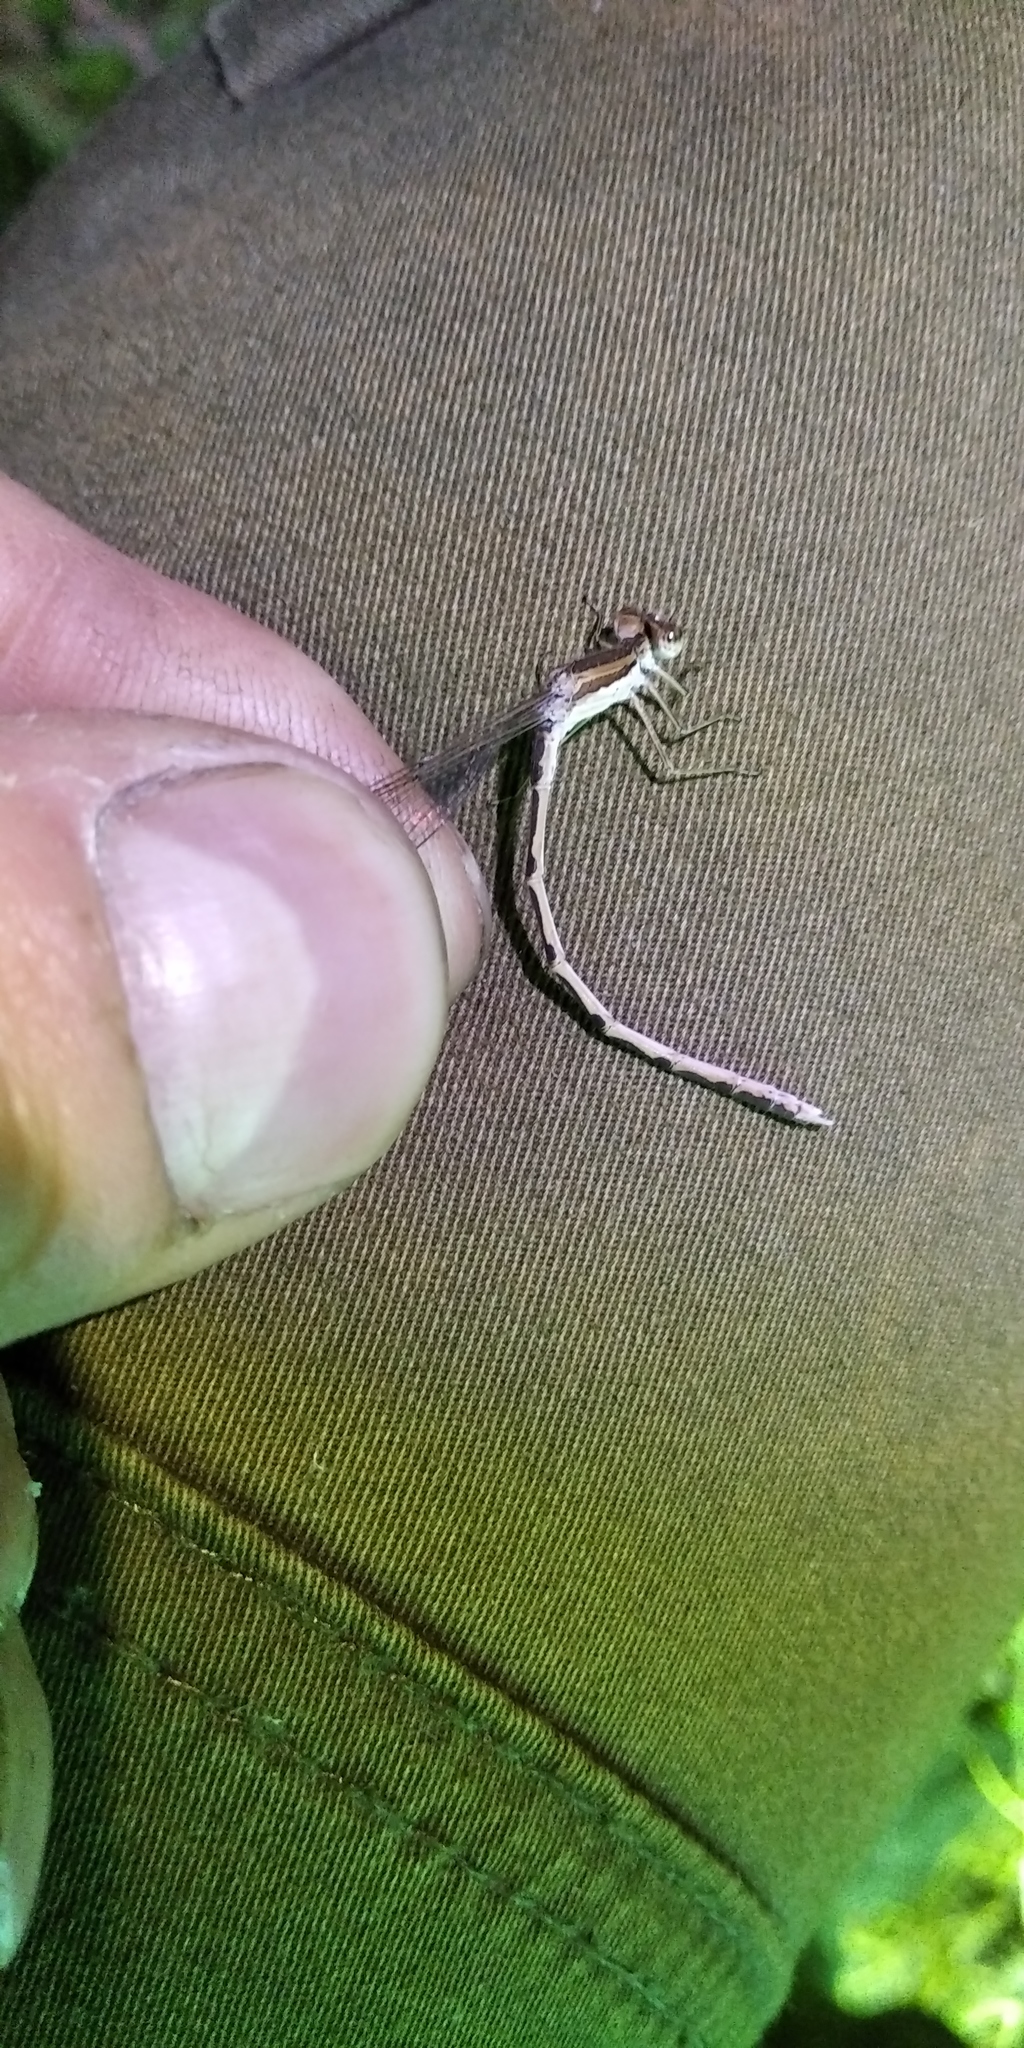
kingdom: Animalia
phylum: Arthropoda
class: Insecta
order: Odonata
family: Lestidae
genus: Sympecma
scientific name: Sympecma fusca
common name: Common winter damsel
